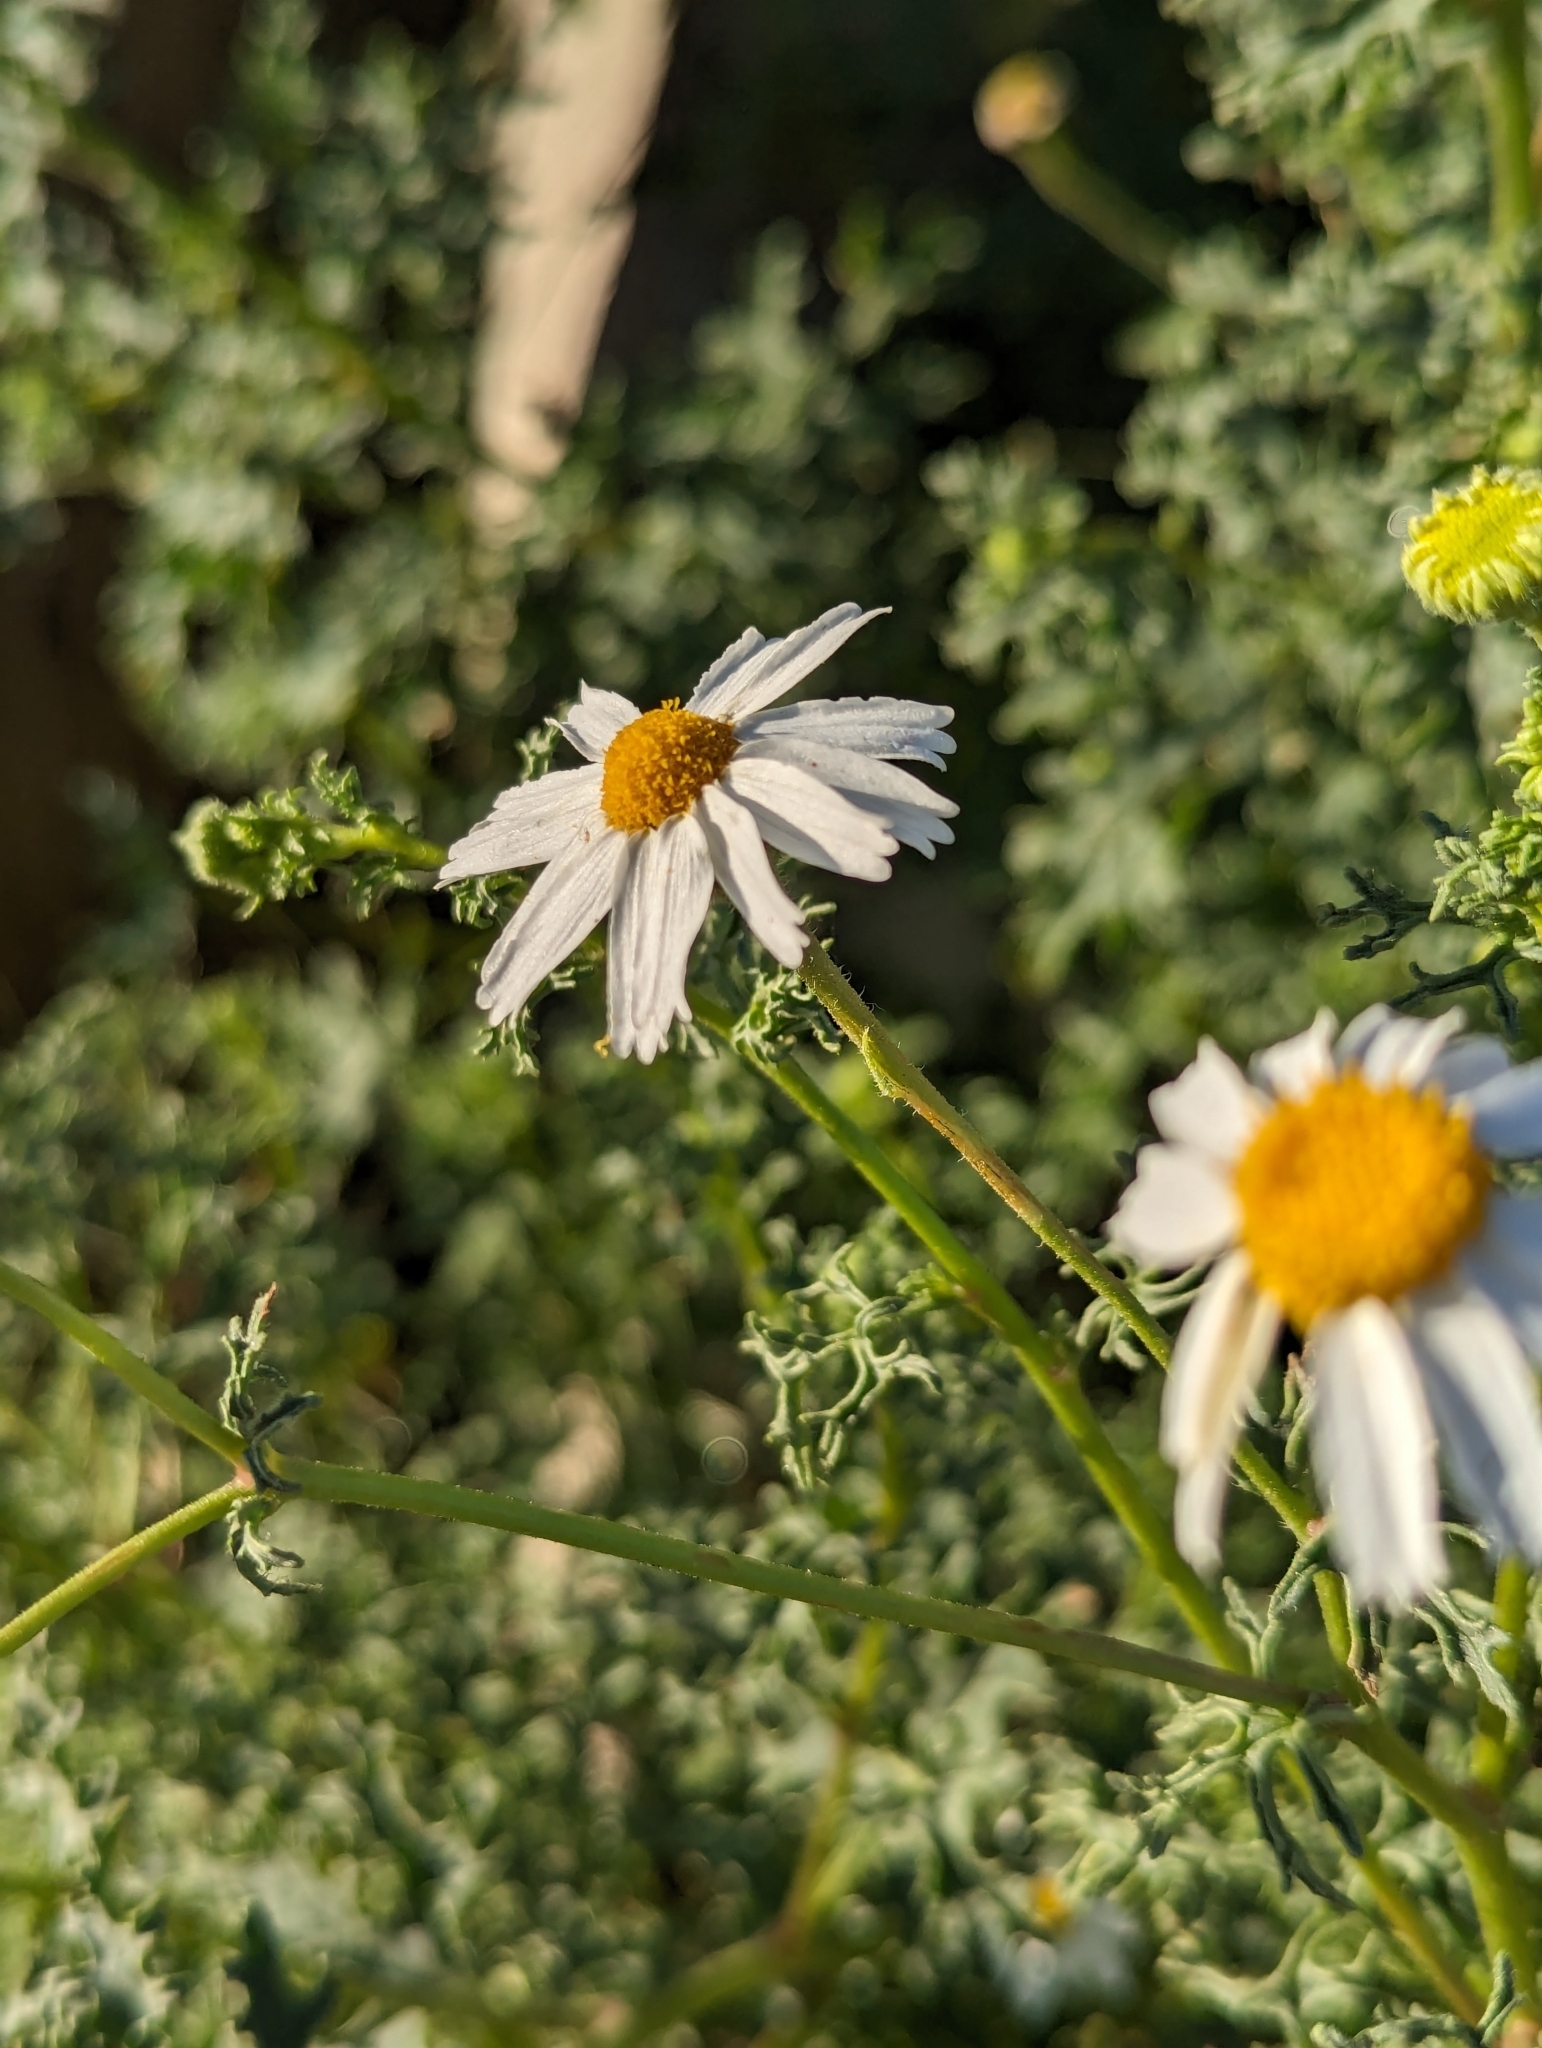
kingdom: Plantae
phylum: Tracheophyta
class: Magnoliopsida
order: Asterales
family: Asteraceae
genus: Perityle
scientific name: Perityle crassifolia
